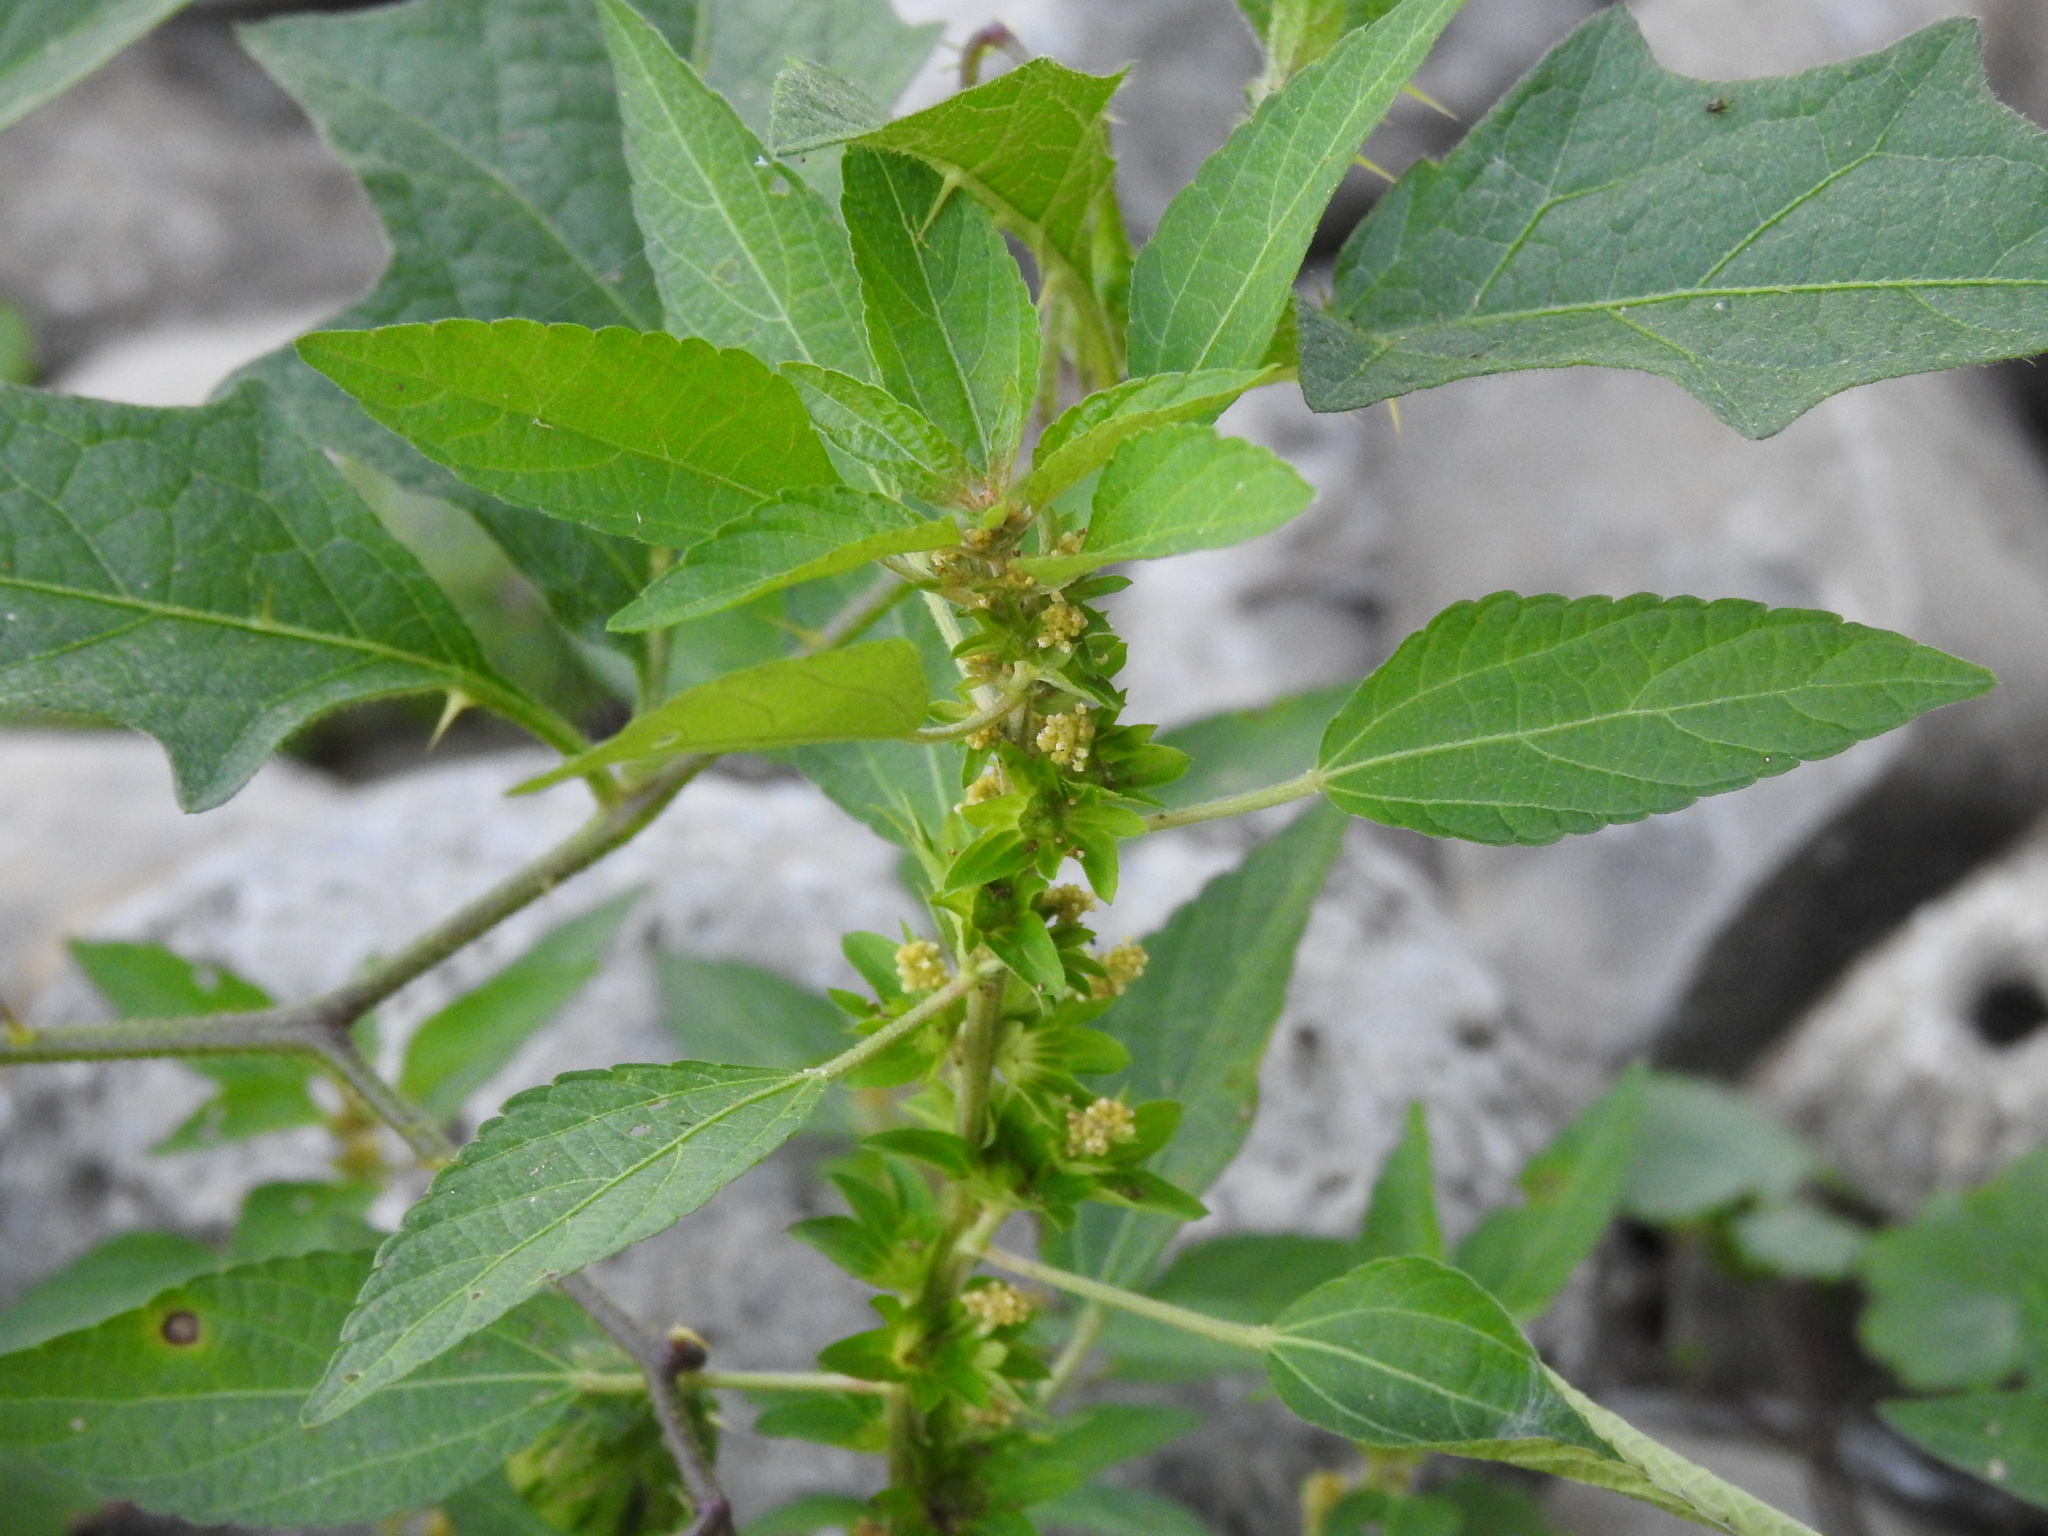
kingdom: Plantae
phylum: Tracheophyta
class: Magnoliopsida
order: Malpighiales
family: Euphorbiaceae
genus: Acalypha
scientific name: Acalypha rhomboidea
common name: Rhombic copperleaf
